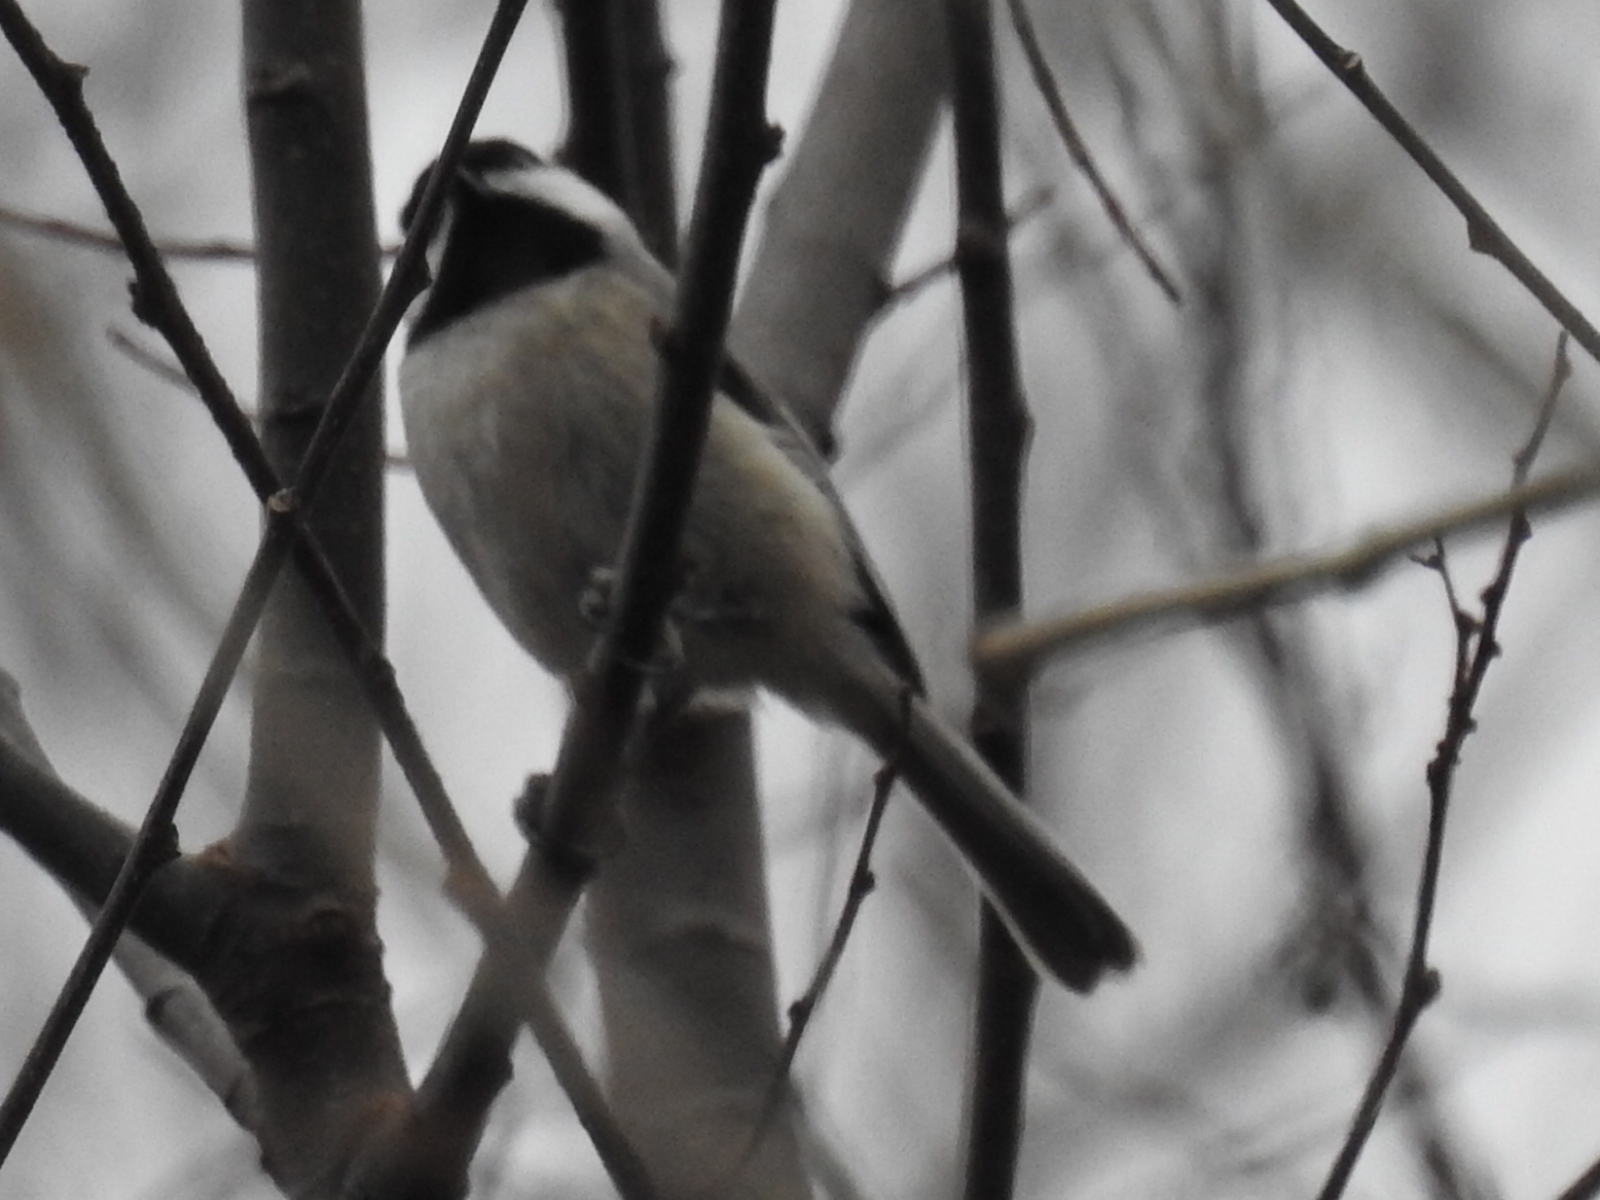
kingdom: Animalia
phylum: Chordata
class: Aves
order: Passeriformes
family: Paridae
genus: Poecile
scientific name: Poecile carolinensis
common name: Carolina chickadee
